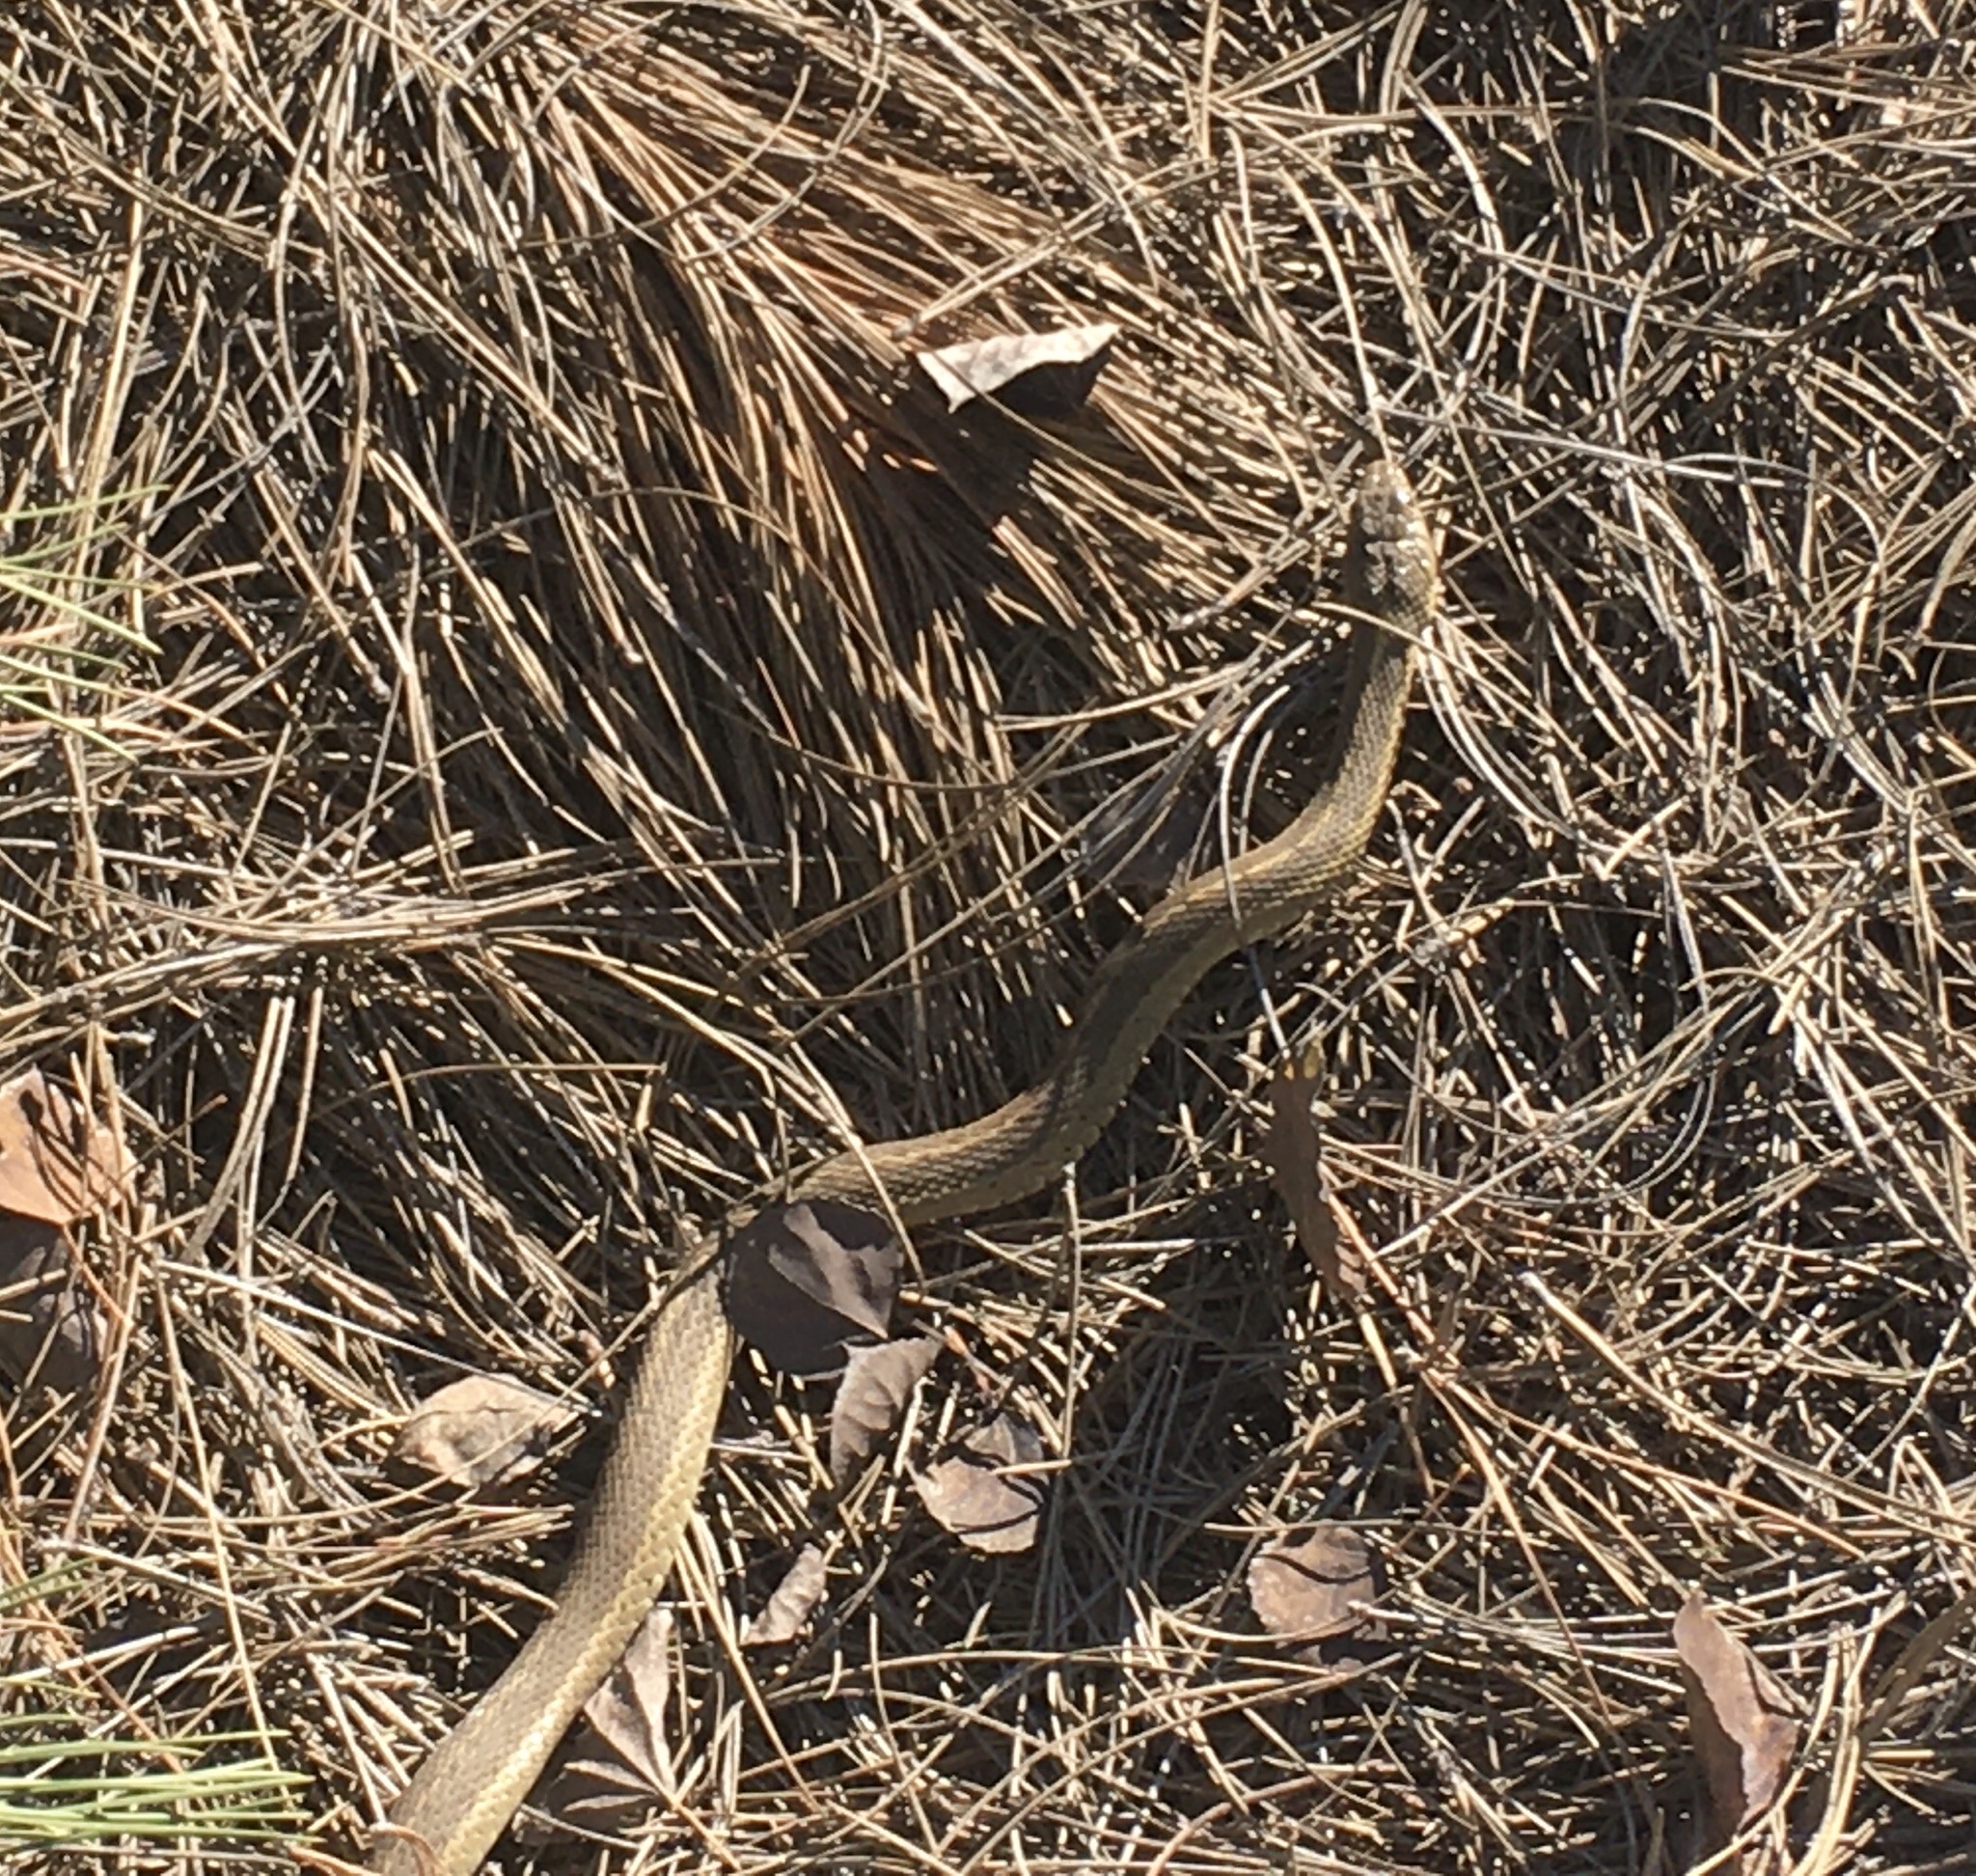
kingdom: Animalia
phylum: Chordata
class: Squamata
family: Colubridae
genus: Thamnophis
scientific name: Thamnophis elegans
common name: Western terrestrial garter snake
